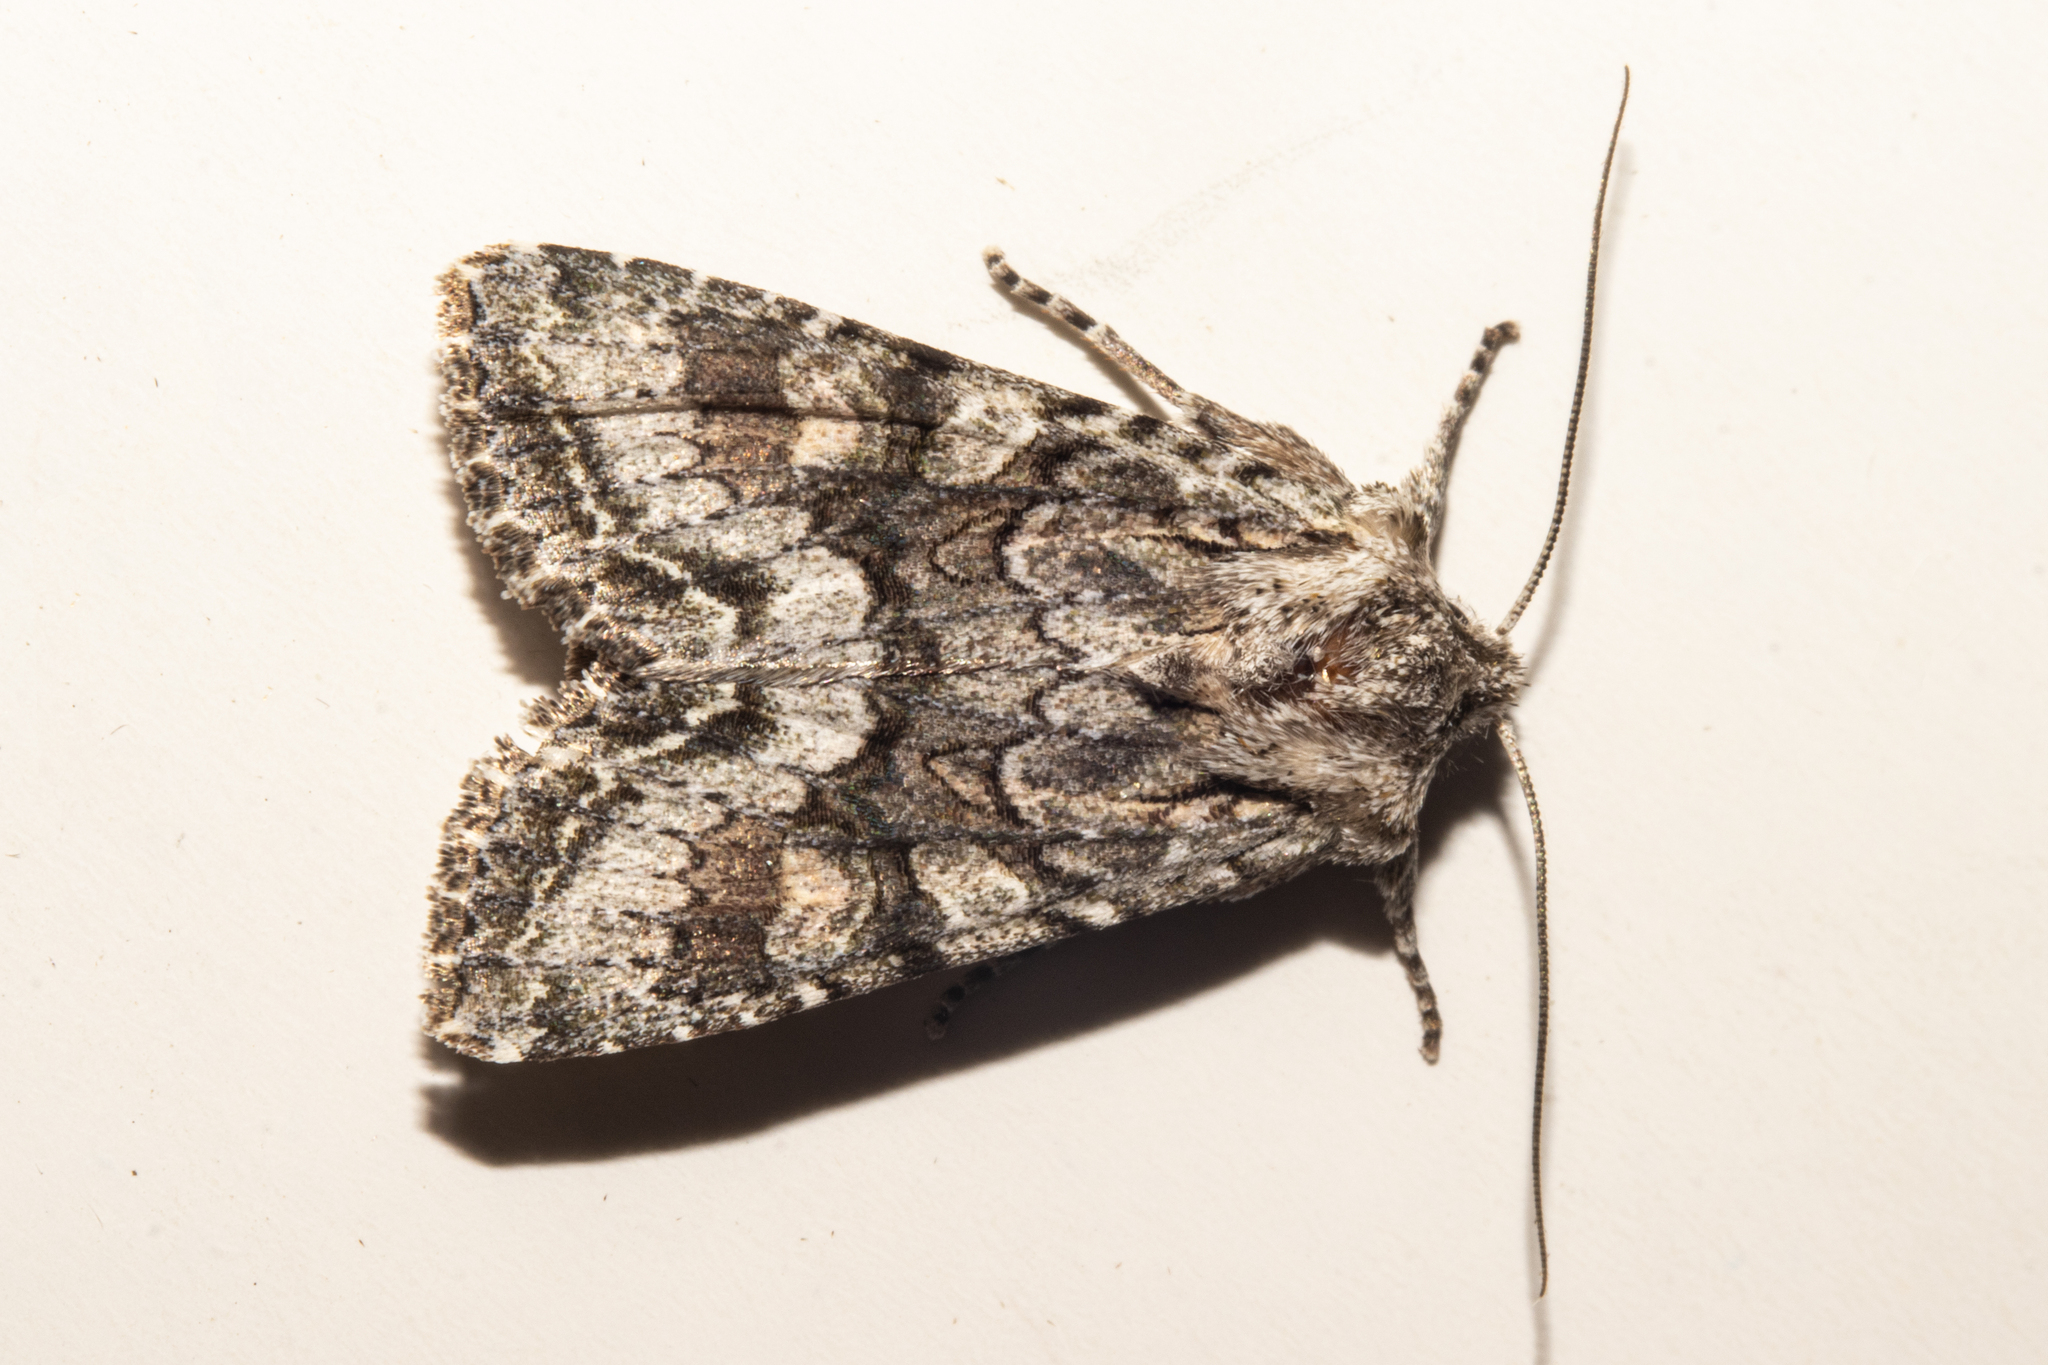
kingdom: Animalia
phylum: Arthropoda
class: Insecta
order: Lepidoptera
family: Noctuidae
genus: Ichneutica
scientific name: Ichneutica mutans
